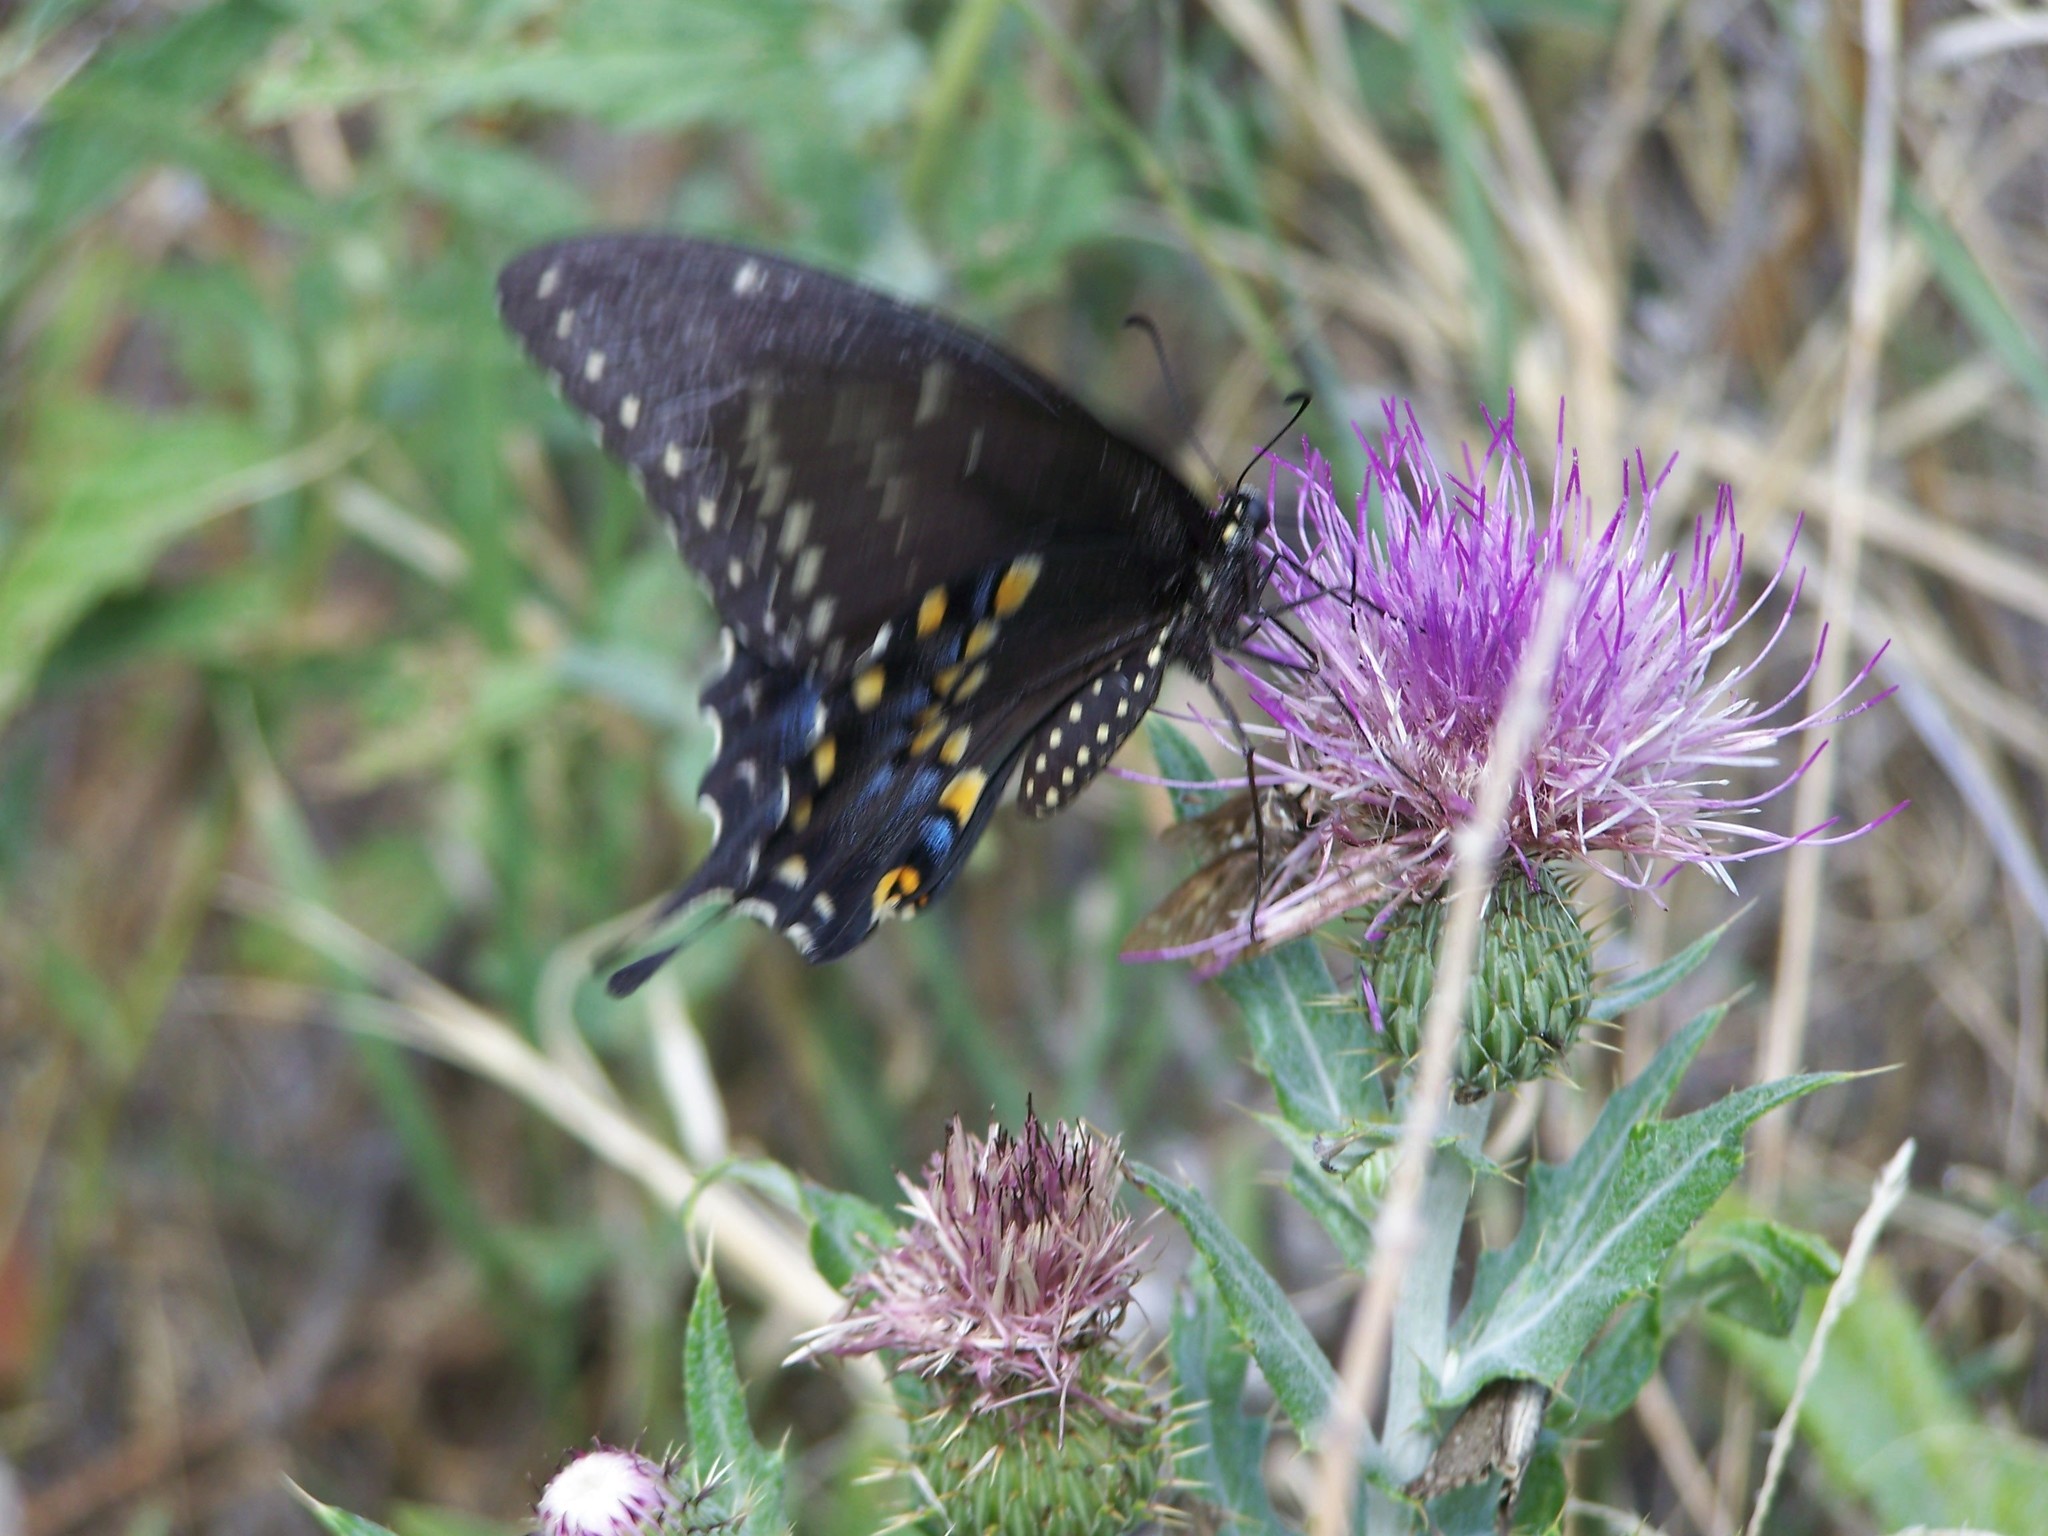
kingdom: Animalia
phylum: Arthropoda
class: Insecta
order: Lepidoptera
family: Papilionidae
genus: Papilio
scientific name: Papilio polyxenes
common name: Black swallowtail
